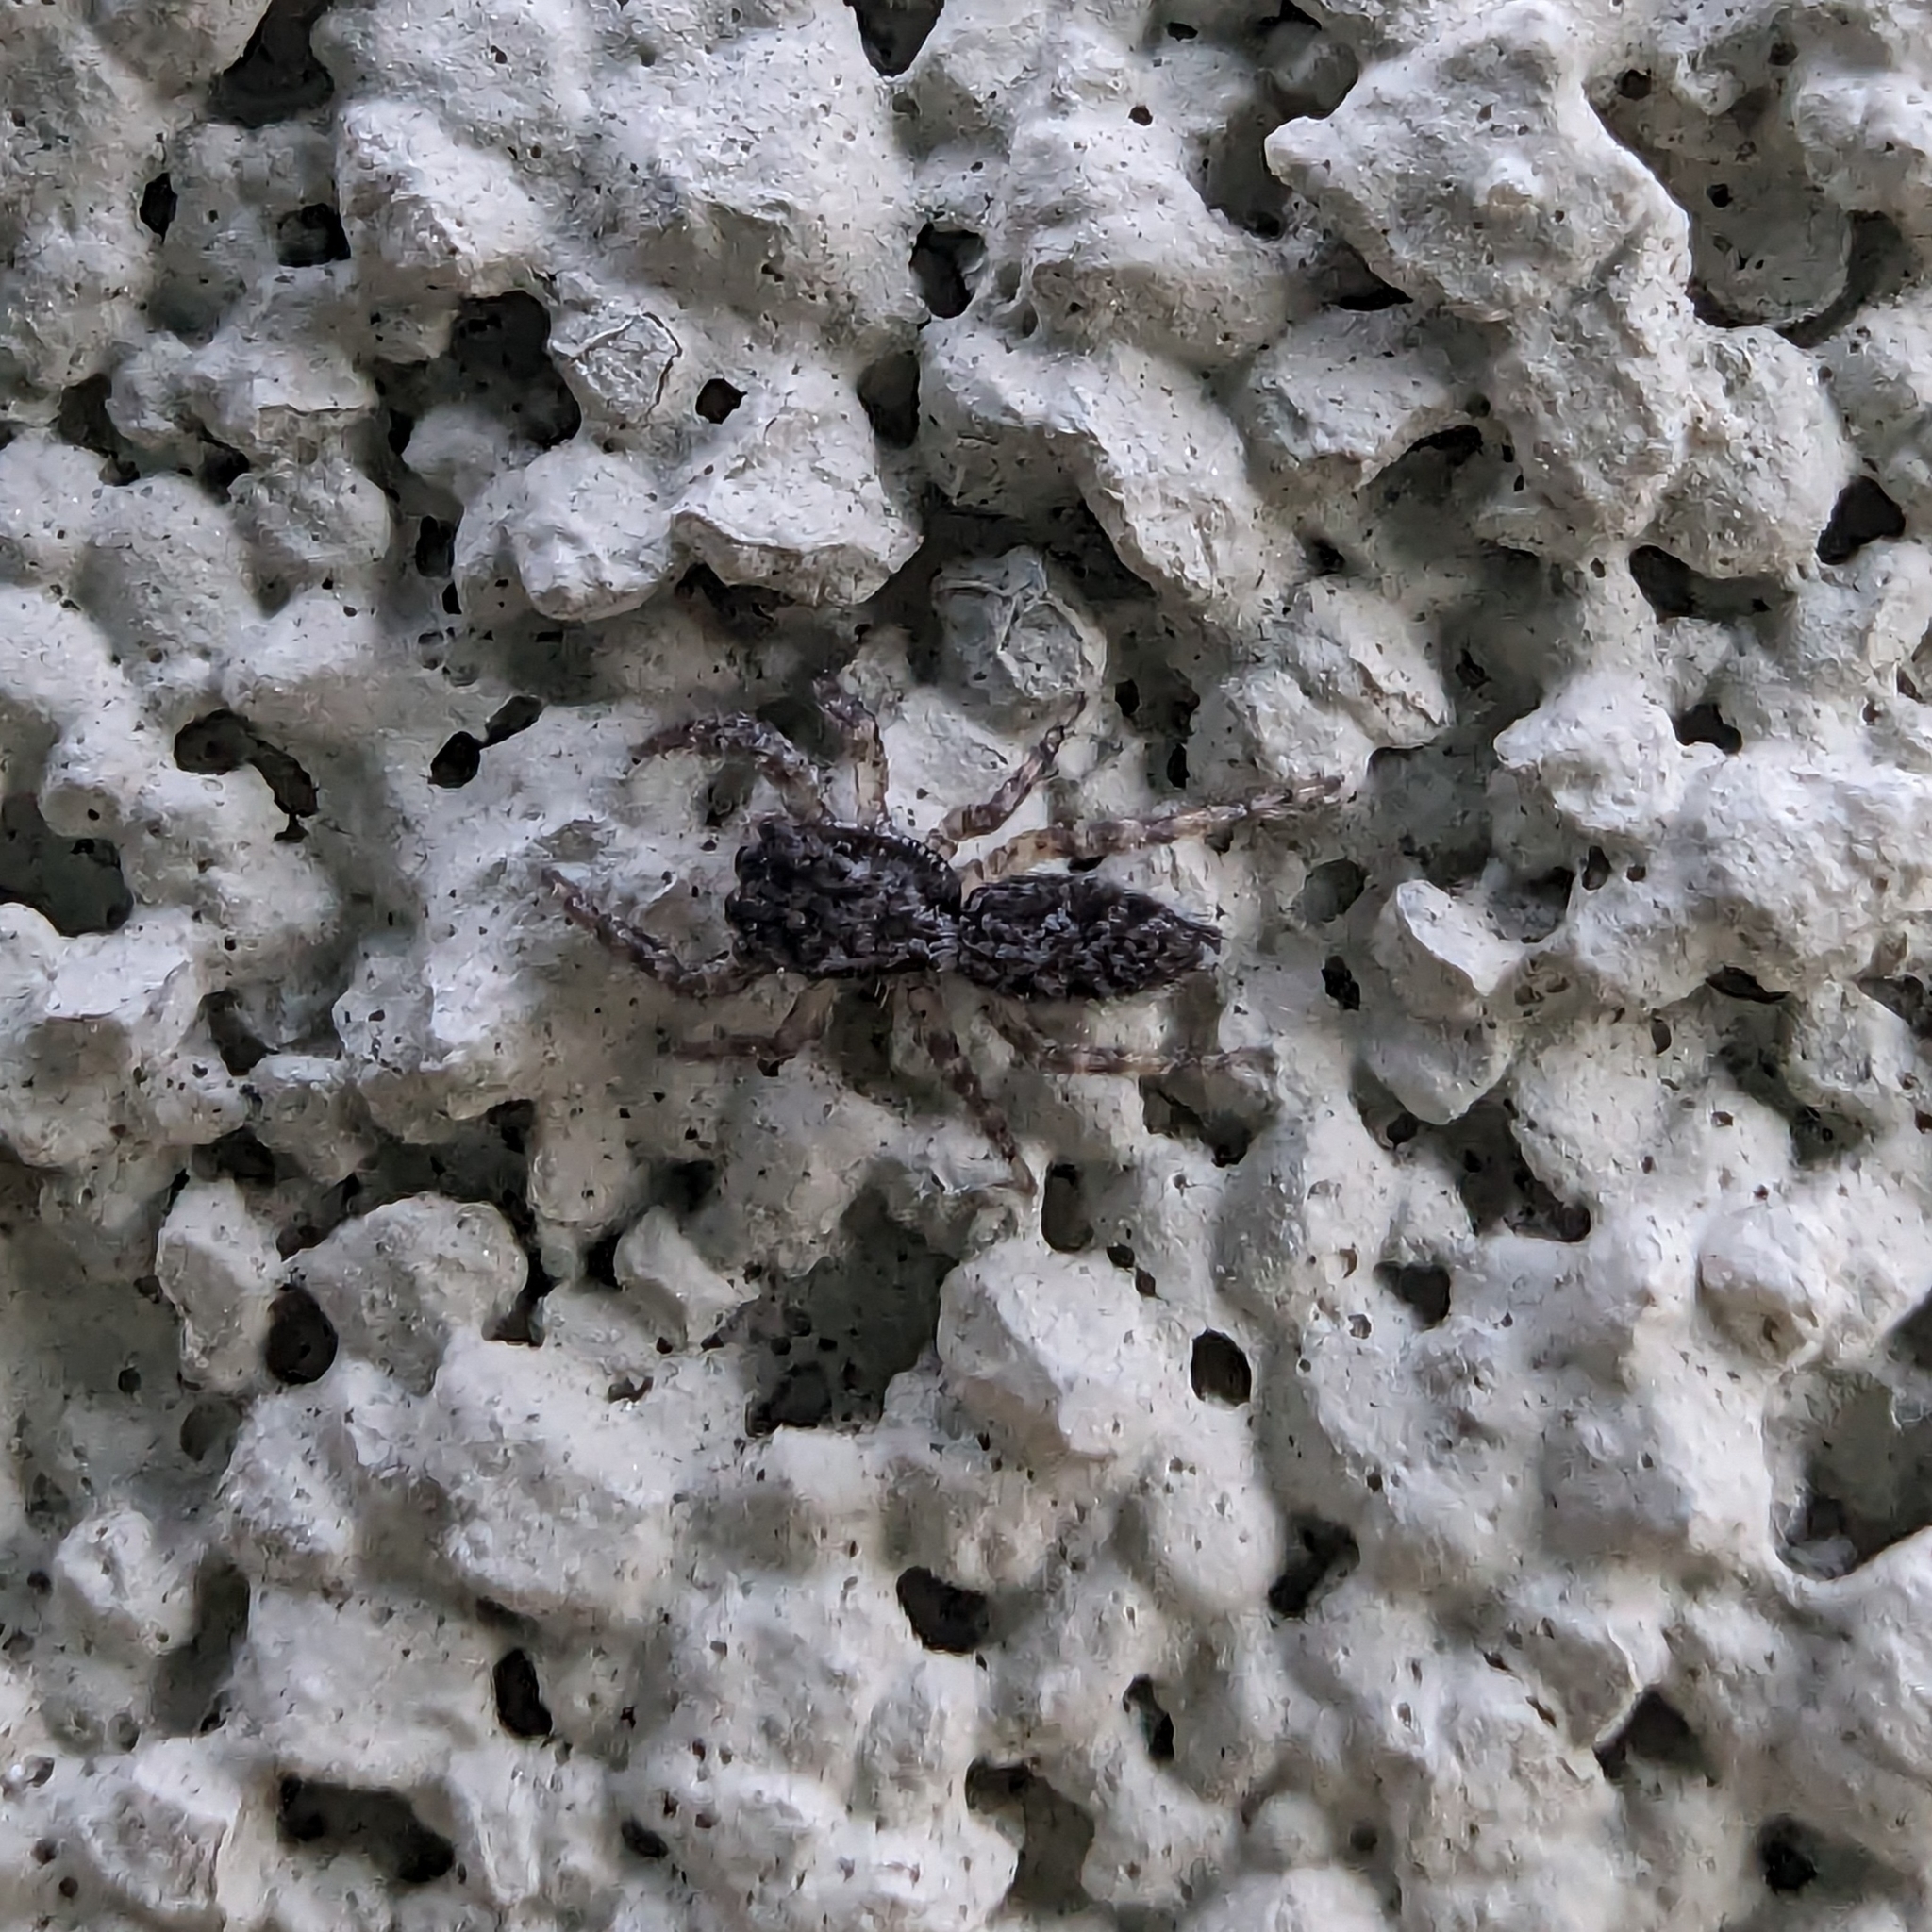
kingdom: Animalia
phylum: Arthropoda
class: Arachnida
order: Araneae
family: Salticidae
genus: Platycryptus
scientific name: Platycryptus californicus
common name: Jumping spiders
